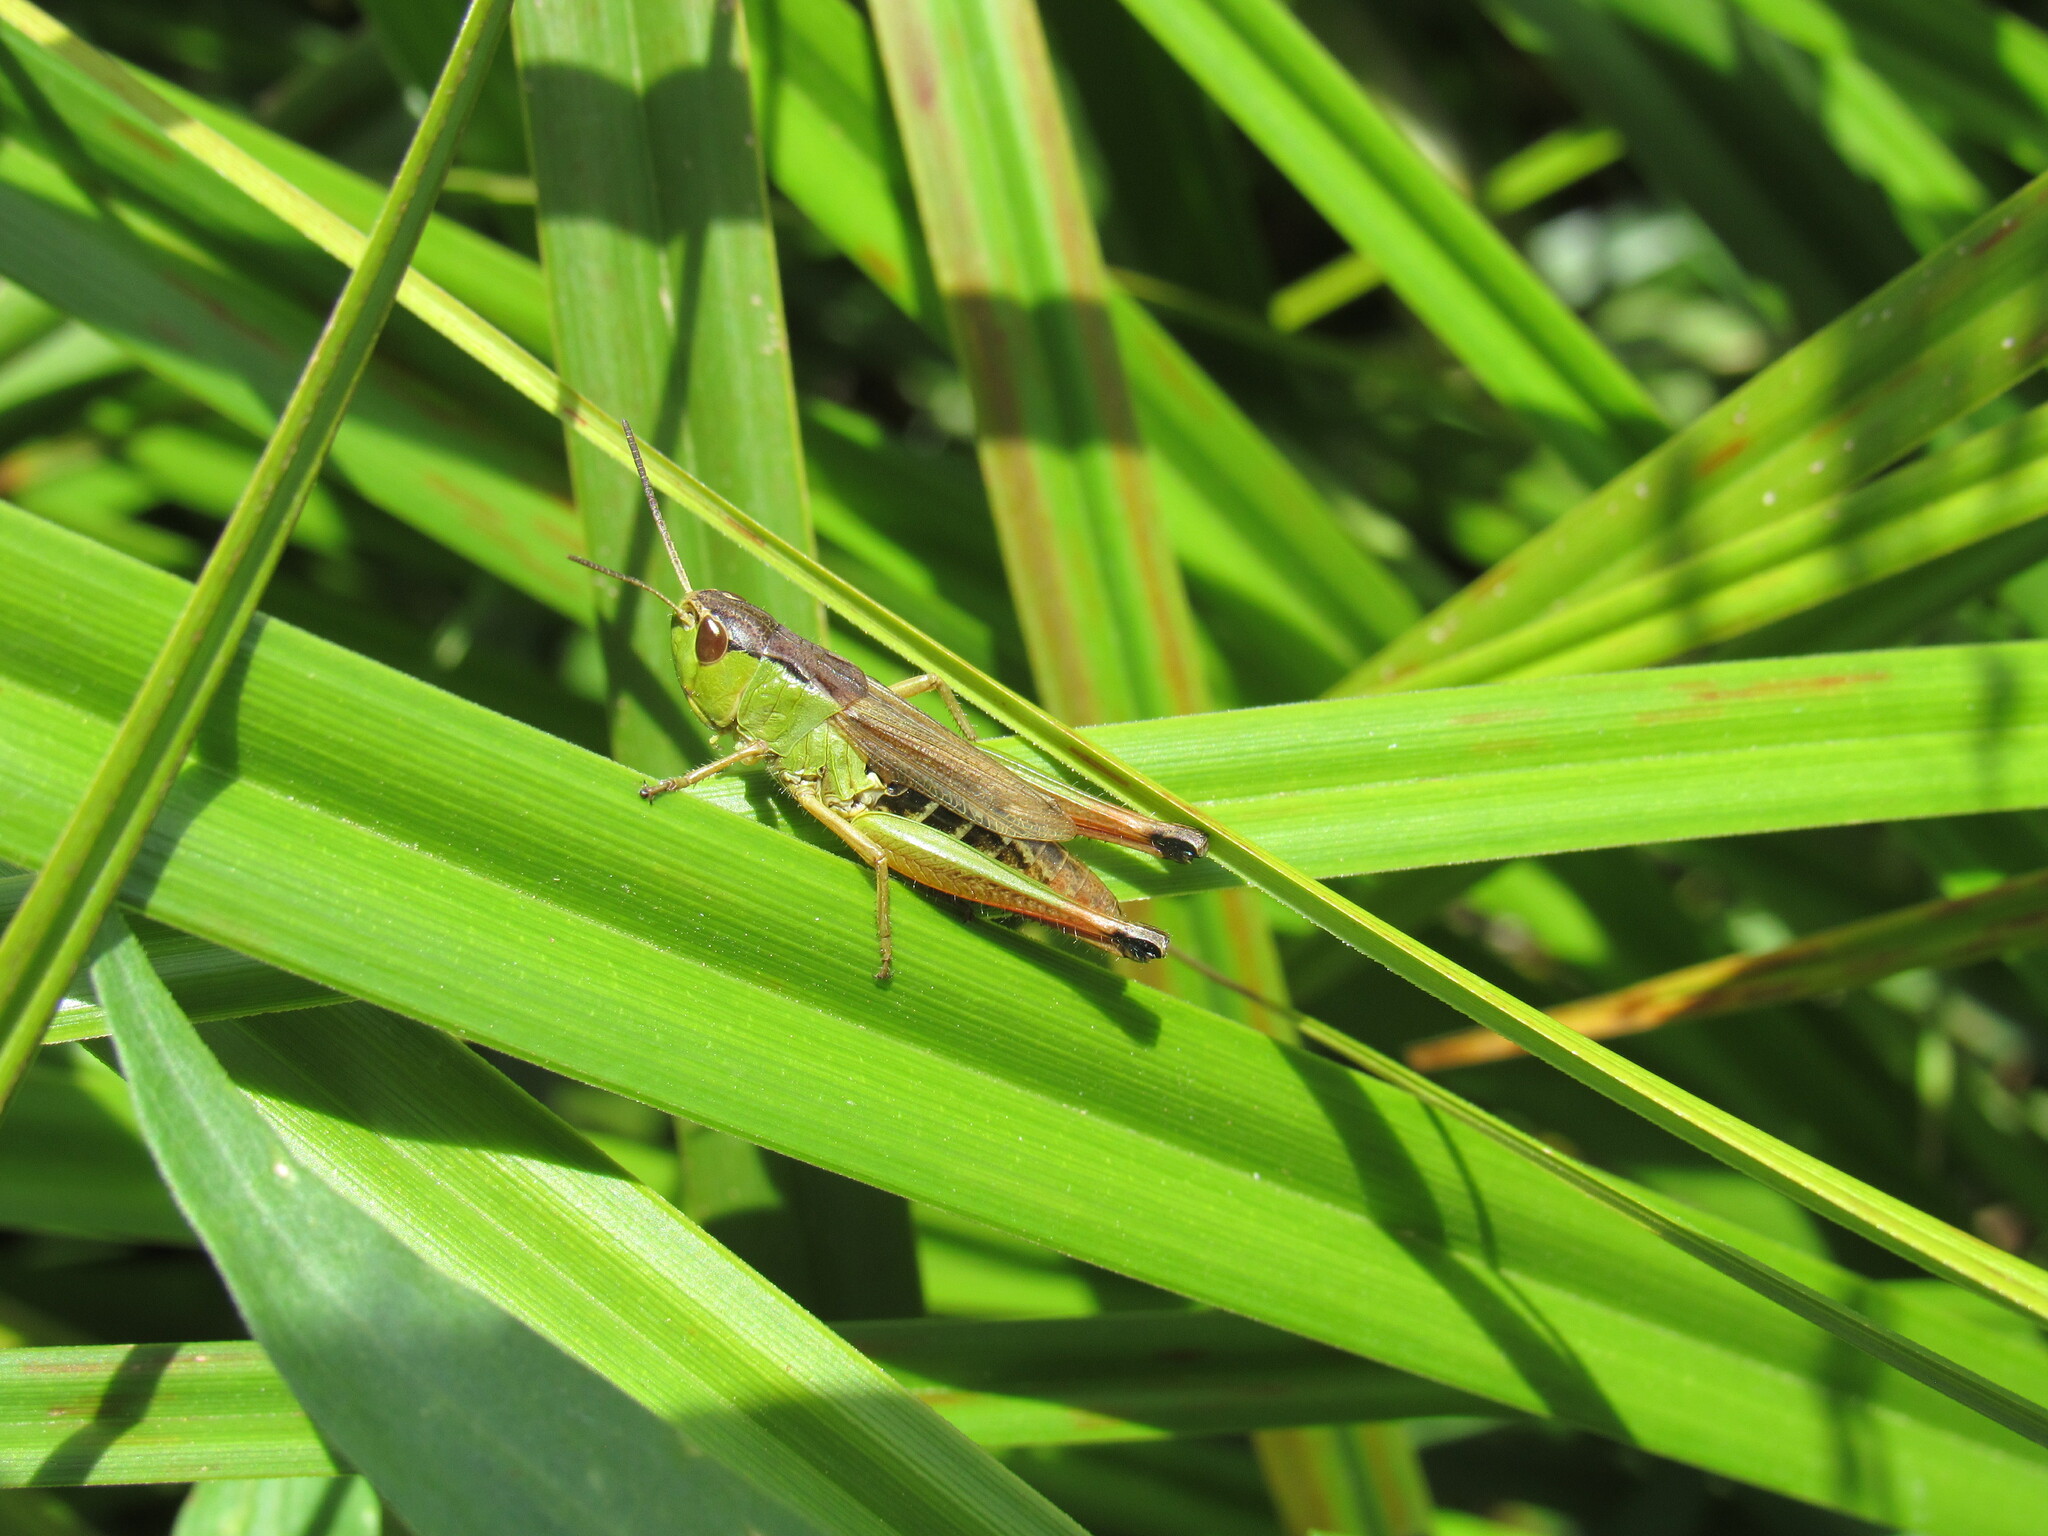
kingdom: Animalia
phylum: Arthropoda
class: Insecta
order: Orthoptera
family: Acrididae
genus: Pseudochorthippus
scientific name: Pseudochorthippus curtipennis
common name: Marsh meadow grasshopper
